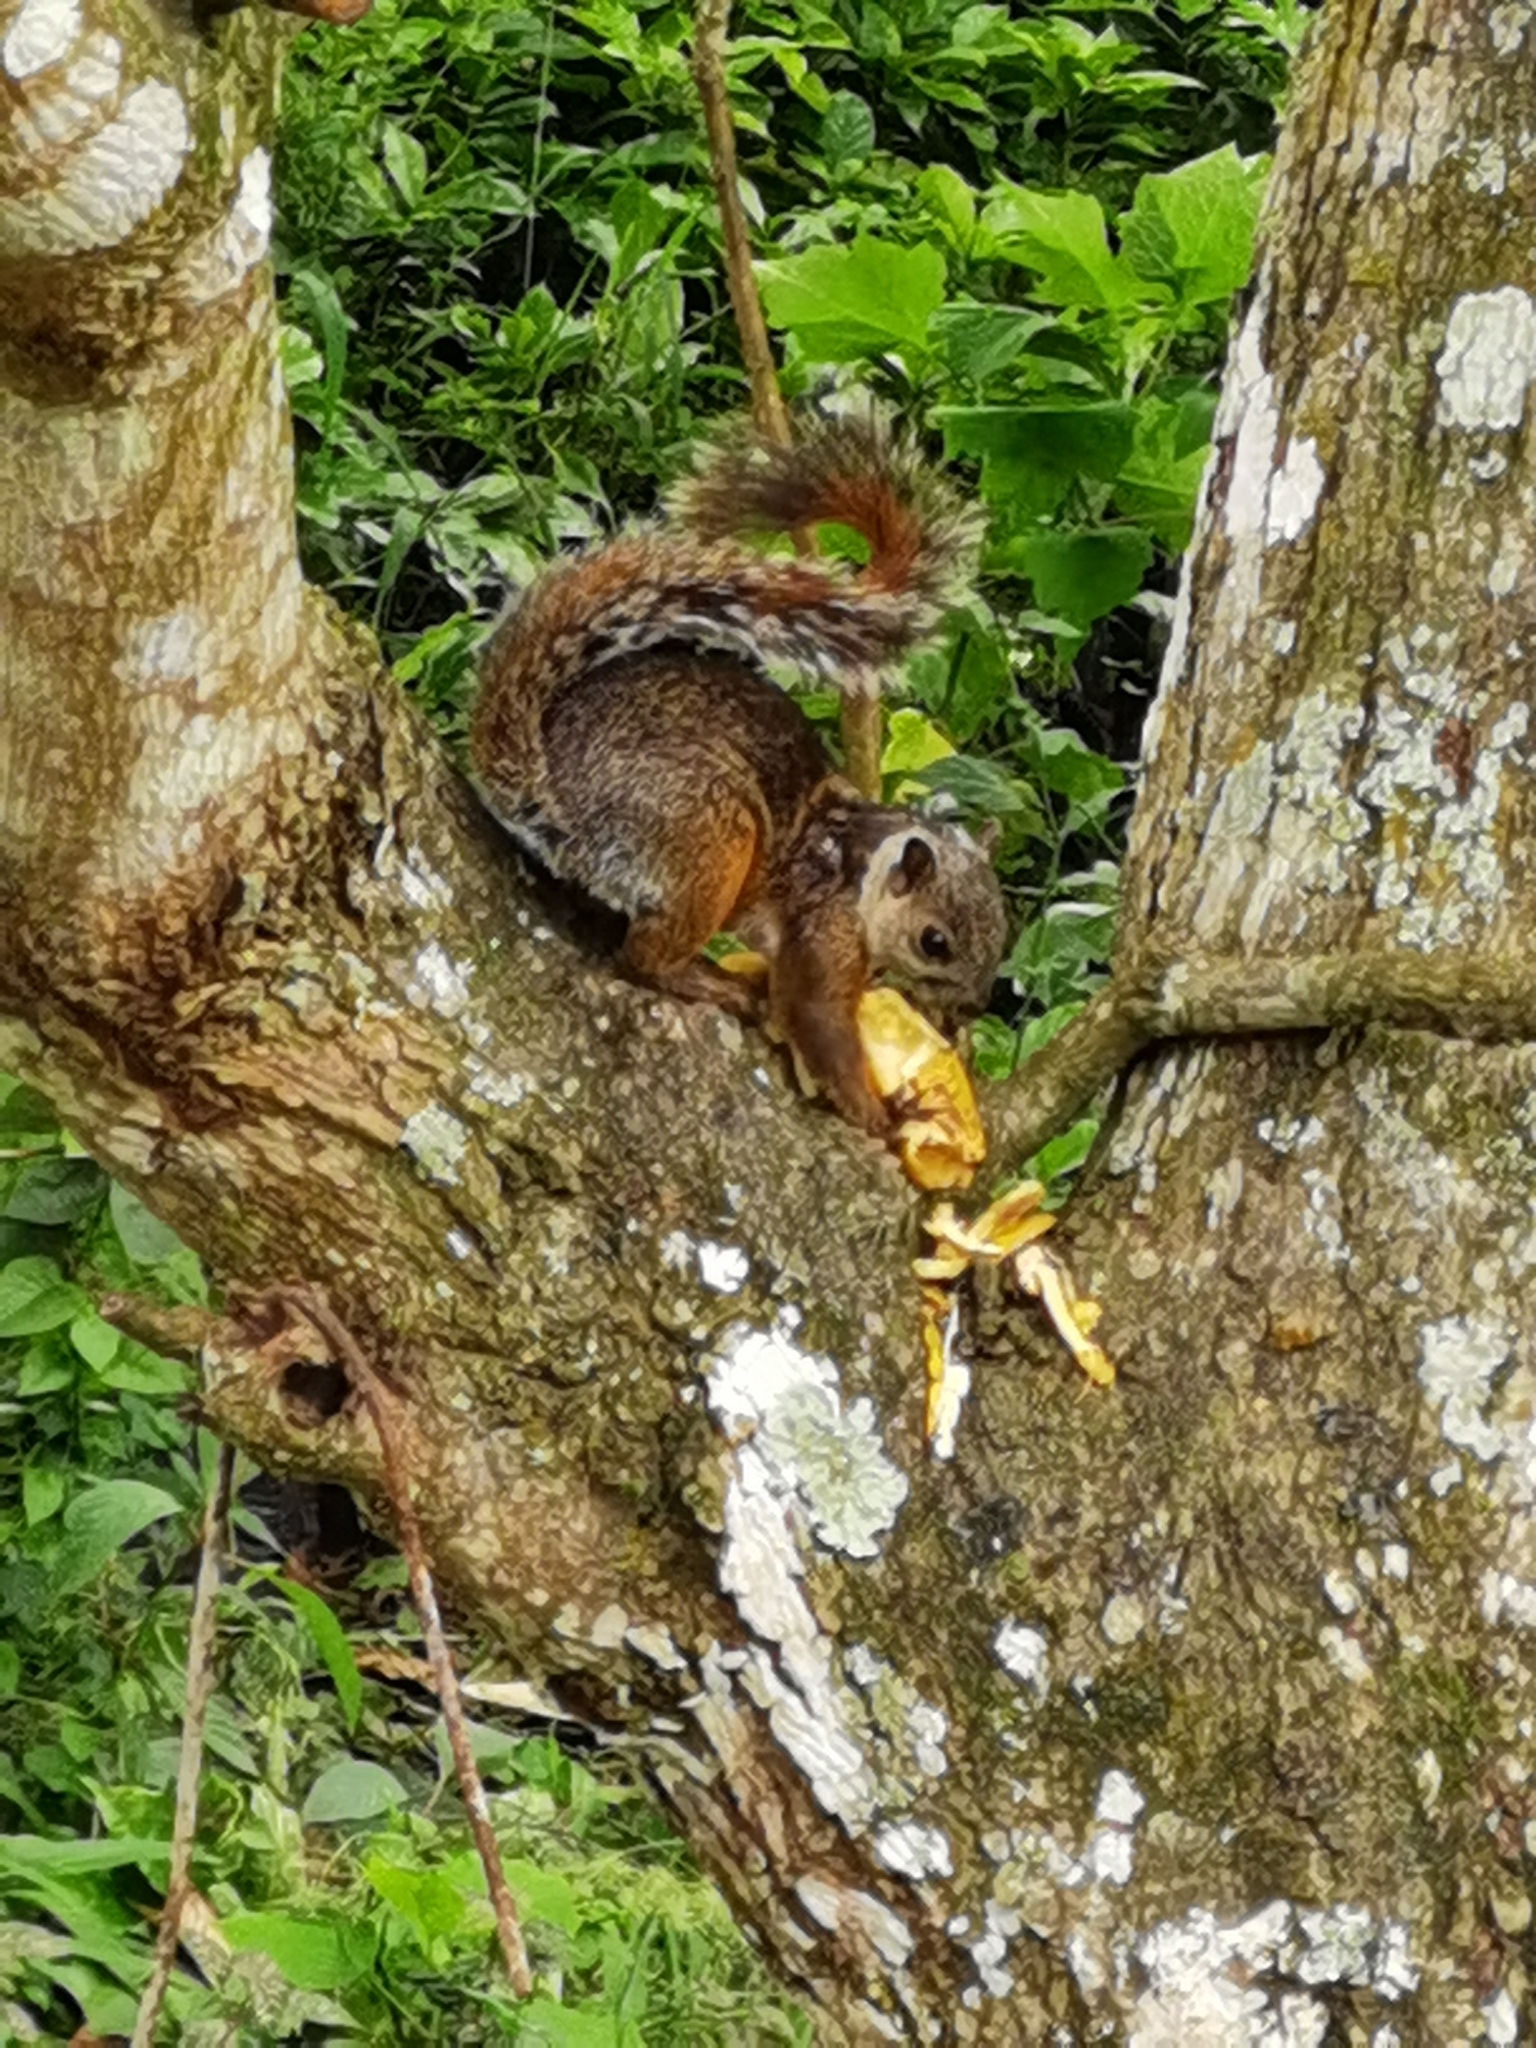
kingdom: Animalia
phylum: Chordata
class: Mammalia
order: Rodentia
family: Sciuridae
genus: Sciurus
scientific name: Sciurus variegatoides
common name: Variegated squirrel
